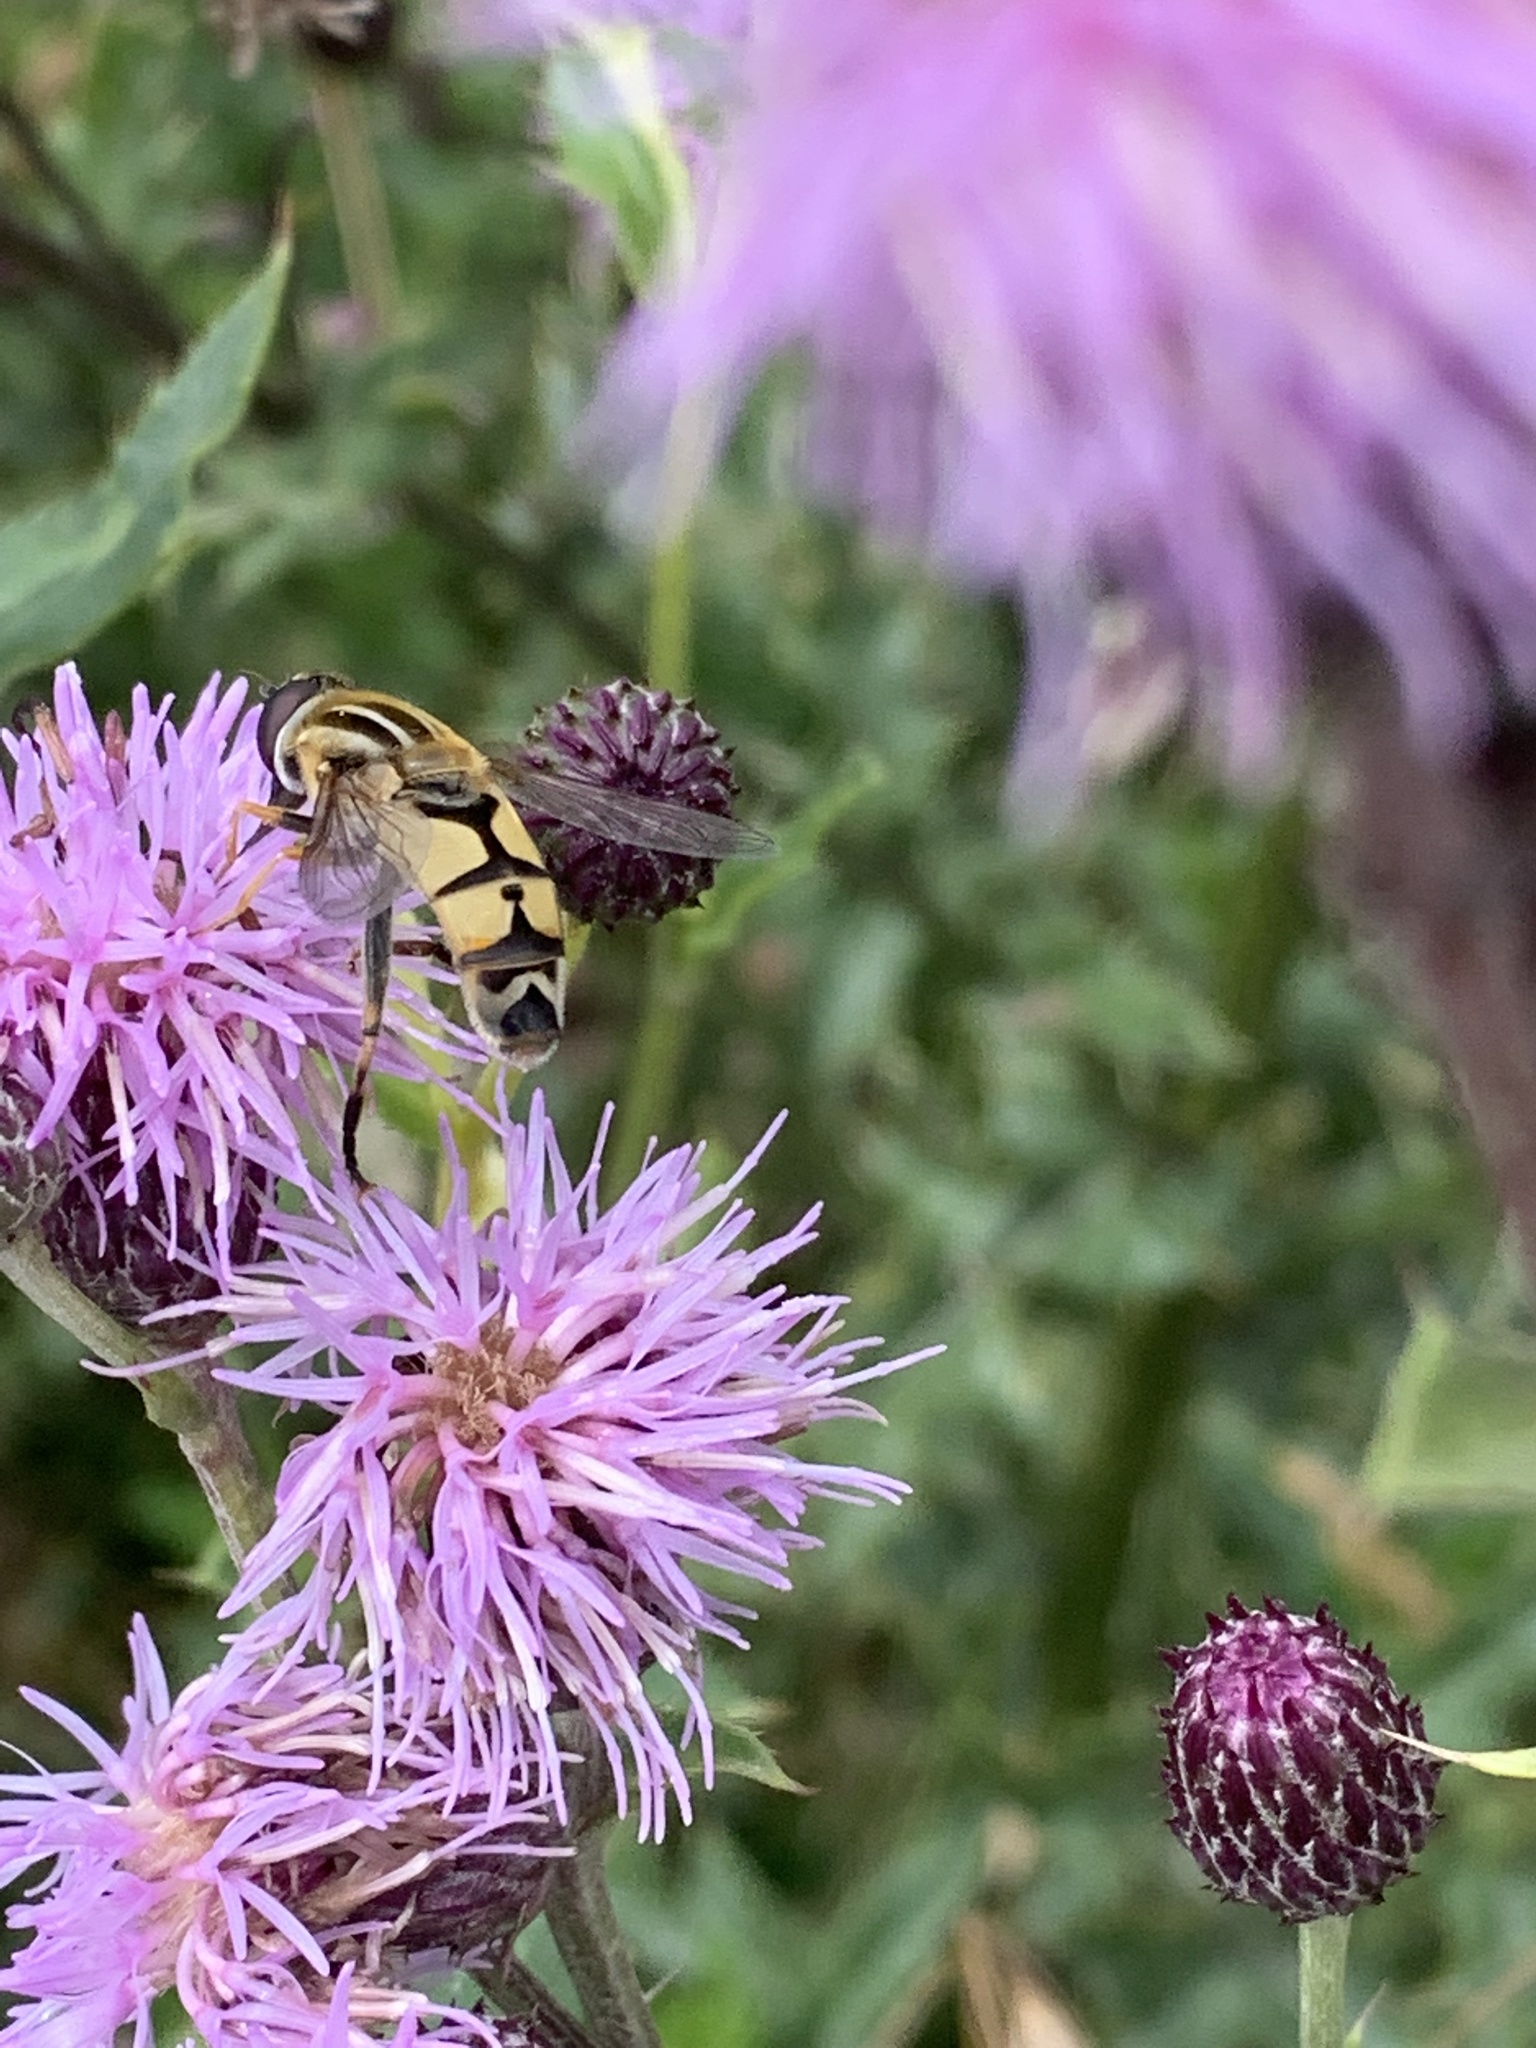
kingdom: Animalia
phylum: Arthropoda
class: Insecta
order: Diptera
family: Syrphidae
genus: Helophilus
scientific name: Helophilus trivittatus
